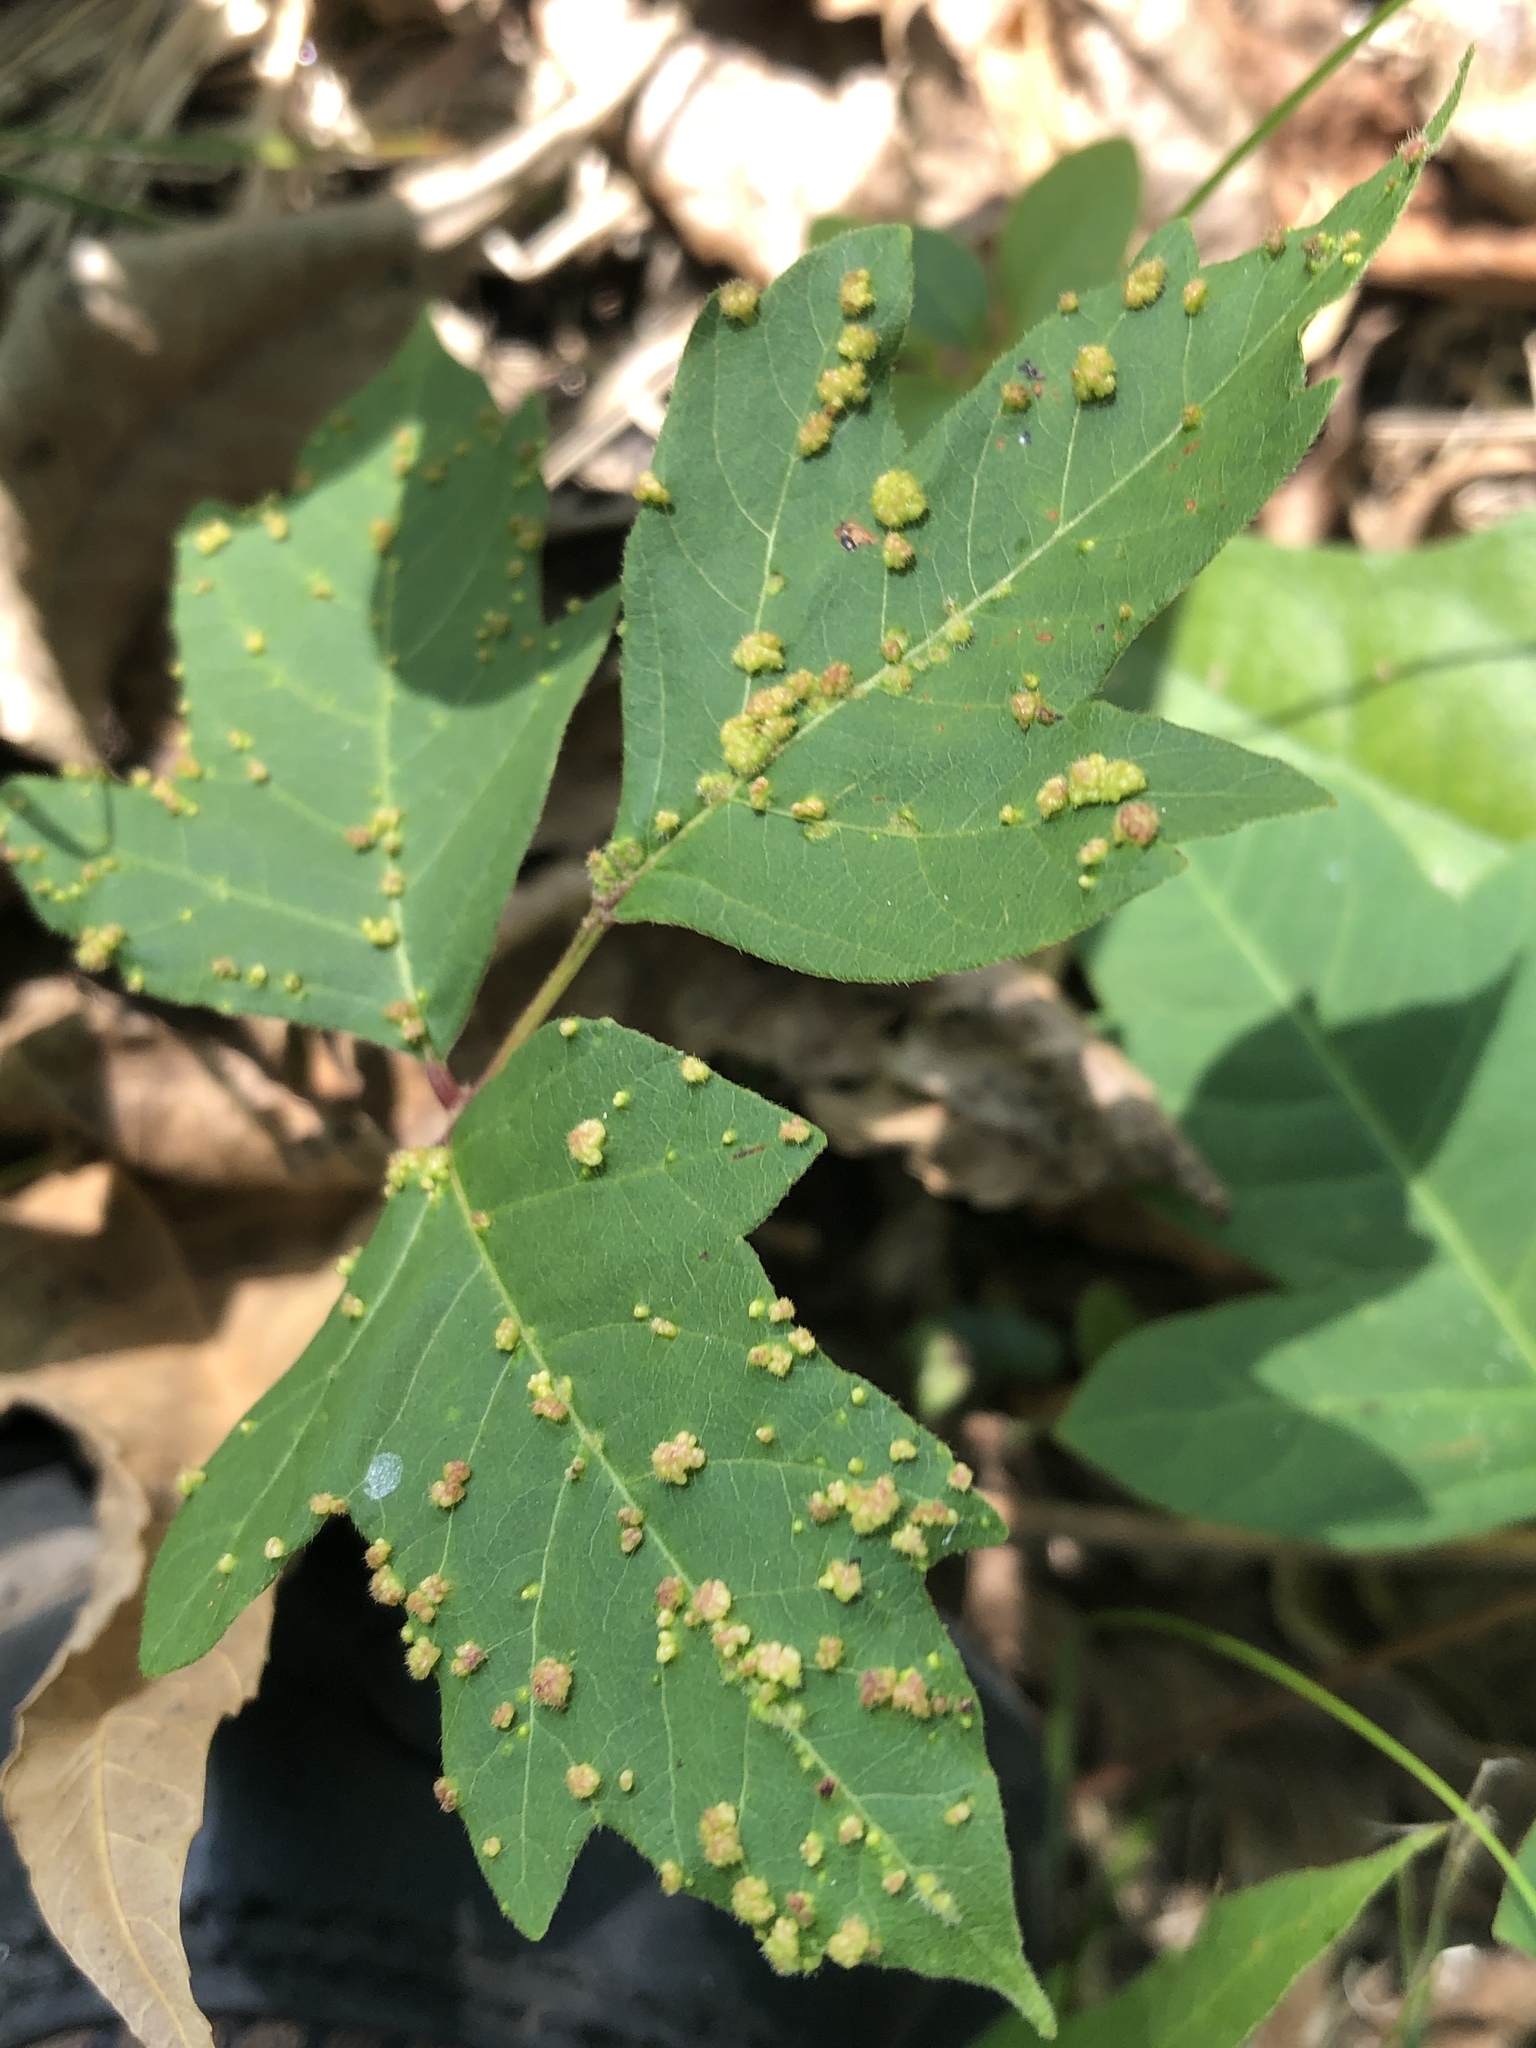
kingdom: Animalia
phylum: Arthropoda
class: Arachnida
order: Trombidiformes
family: Eriophyidae
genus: Aculops
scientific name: Aculops
